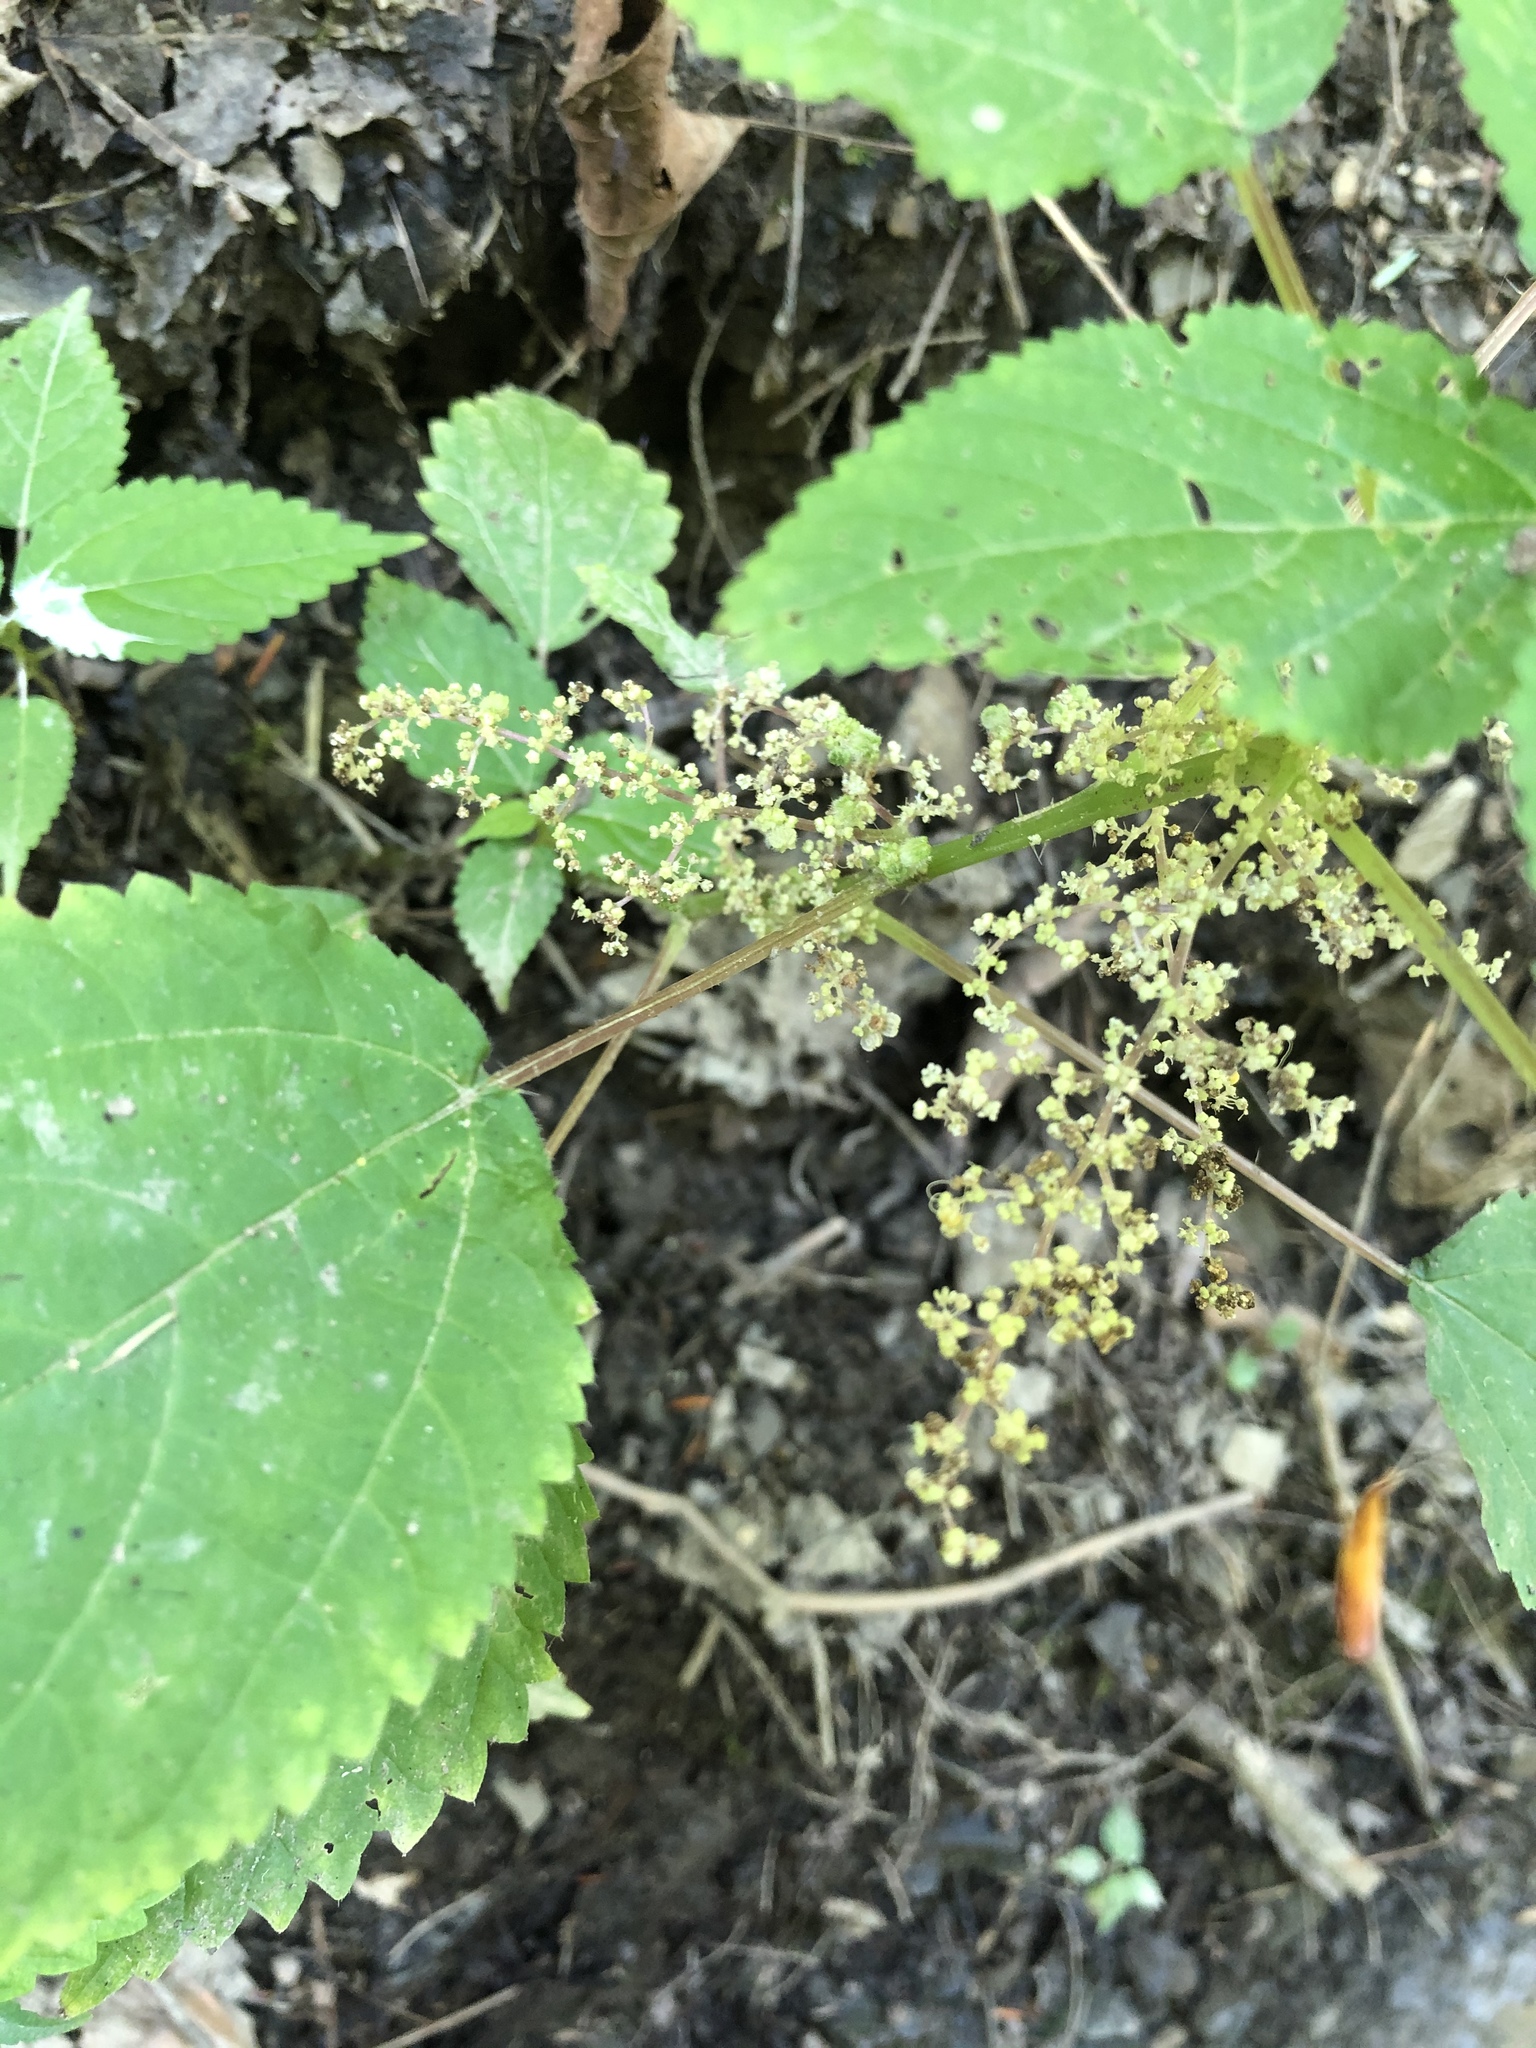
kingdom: Plantae
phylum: Tracheophyta
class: Magnoliopsida
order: Rosales
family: Urticaceae
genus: Laportea
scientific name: Laportea canadensis
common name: Canada nettle
